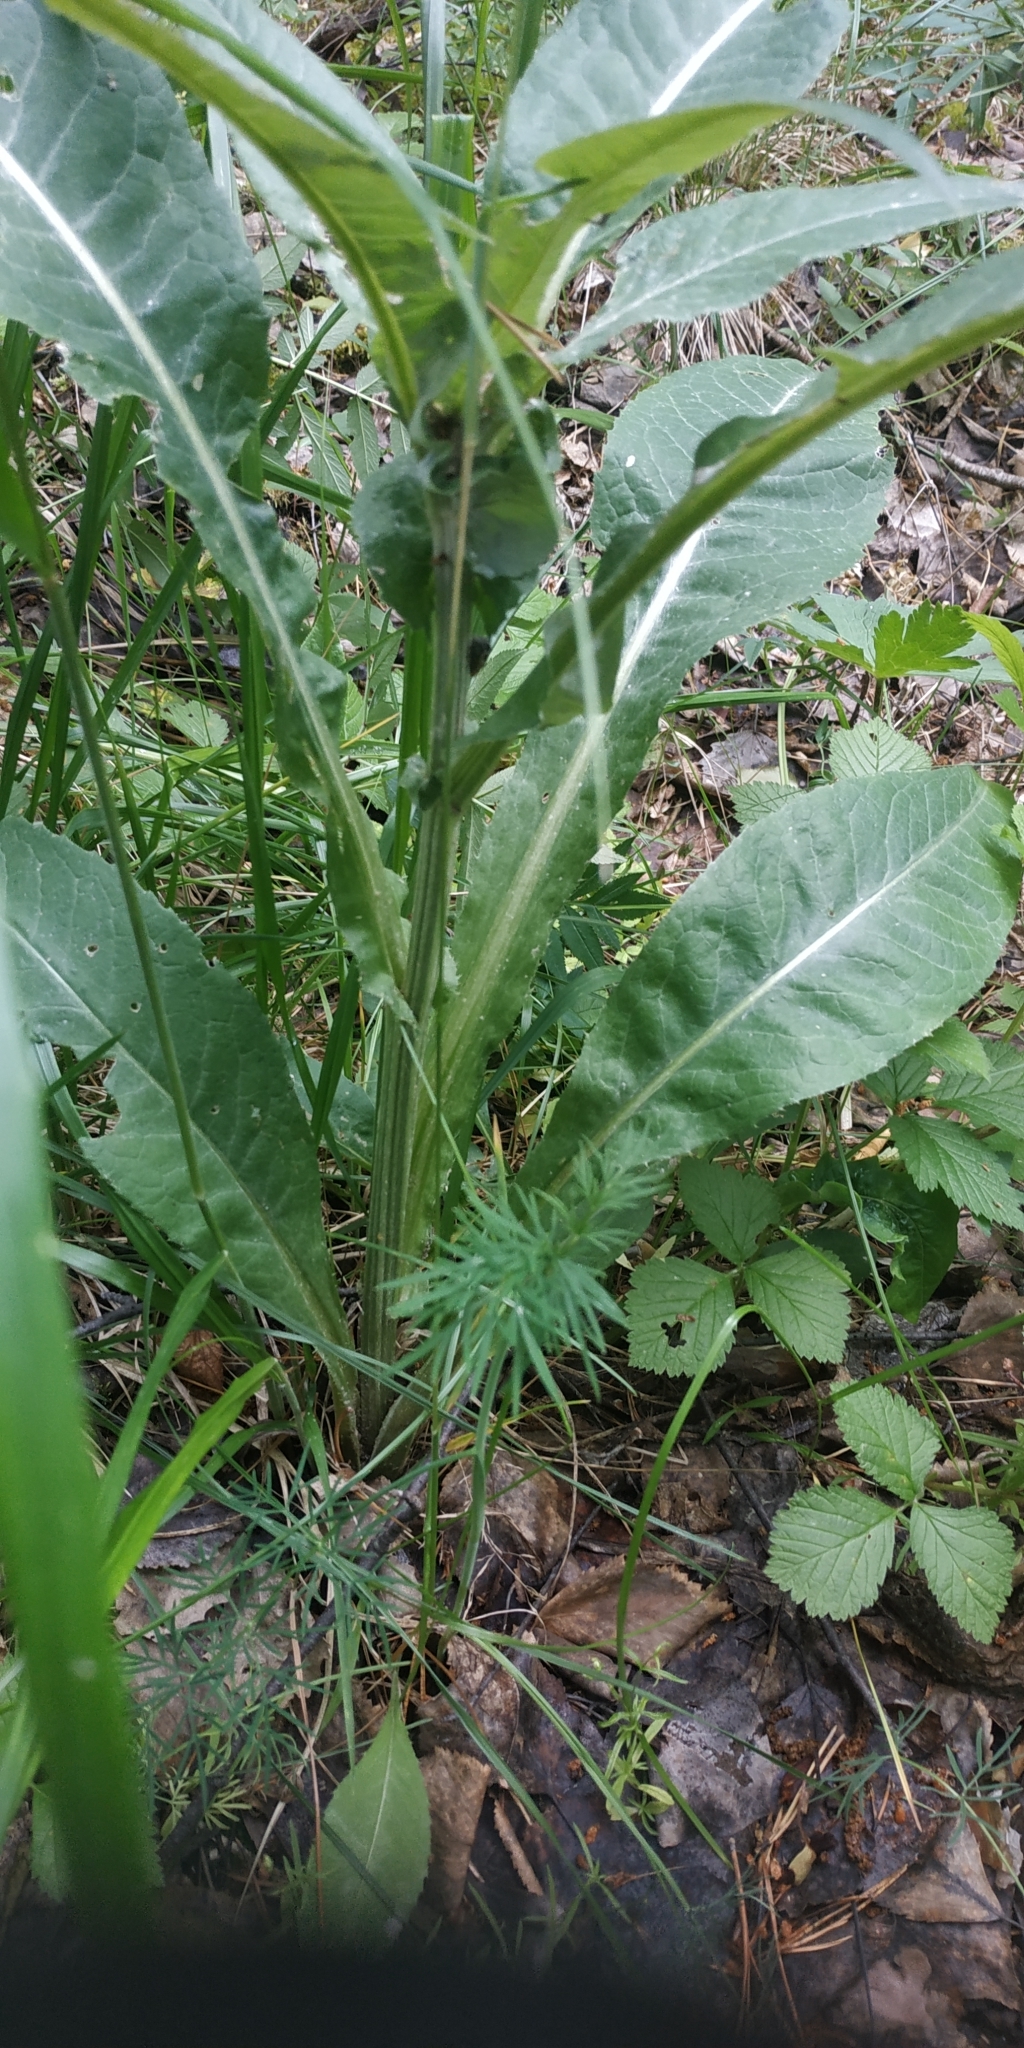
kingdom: Plantae
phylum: Tracheophyta
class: Magnoliopsida
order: Asterales
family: Asteraceae
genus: Cirsium
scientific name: Cirsium heterophyllum
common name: Melancholy thistle
